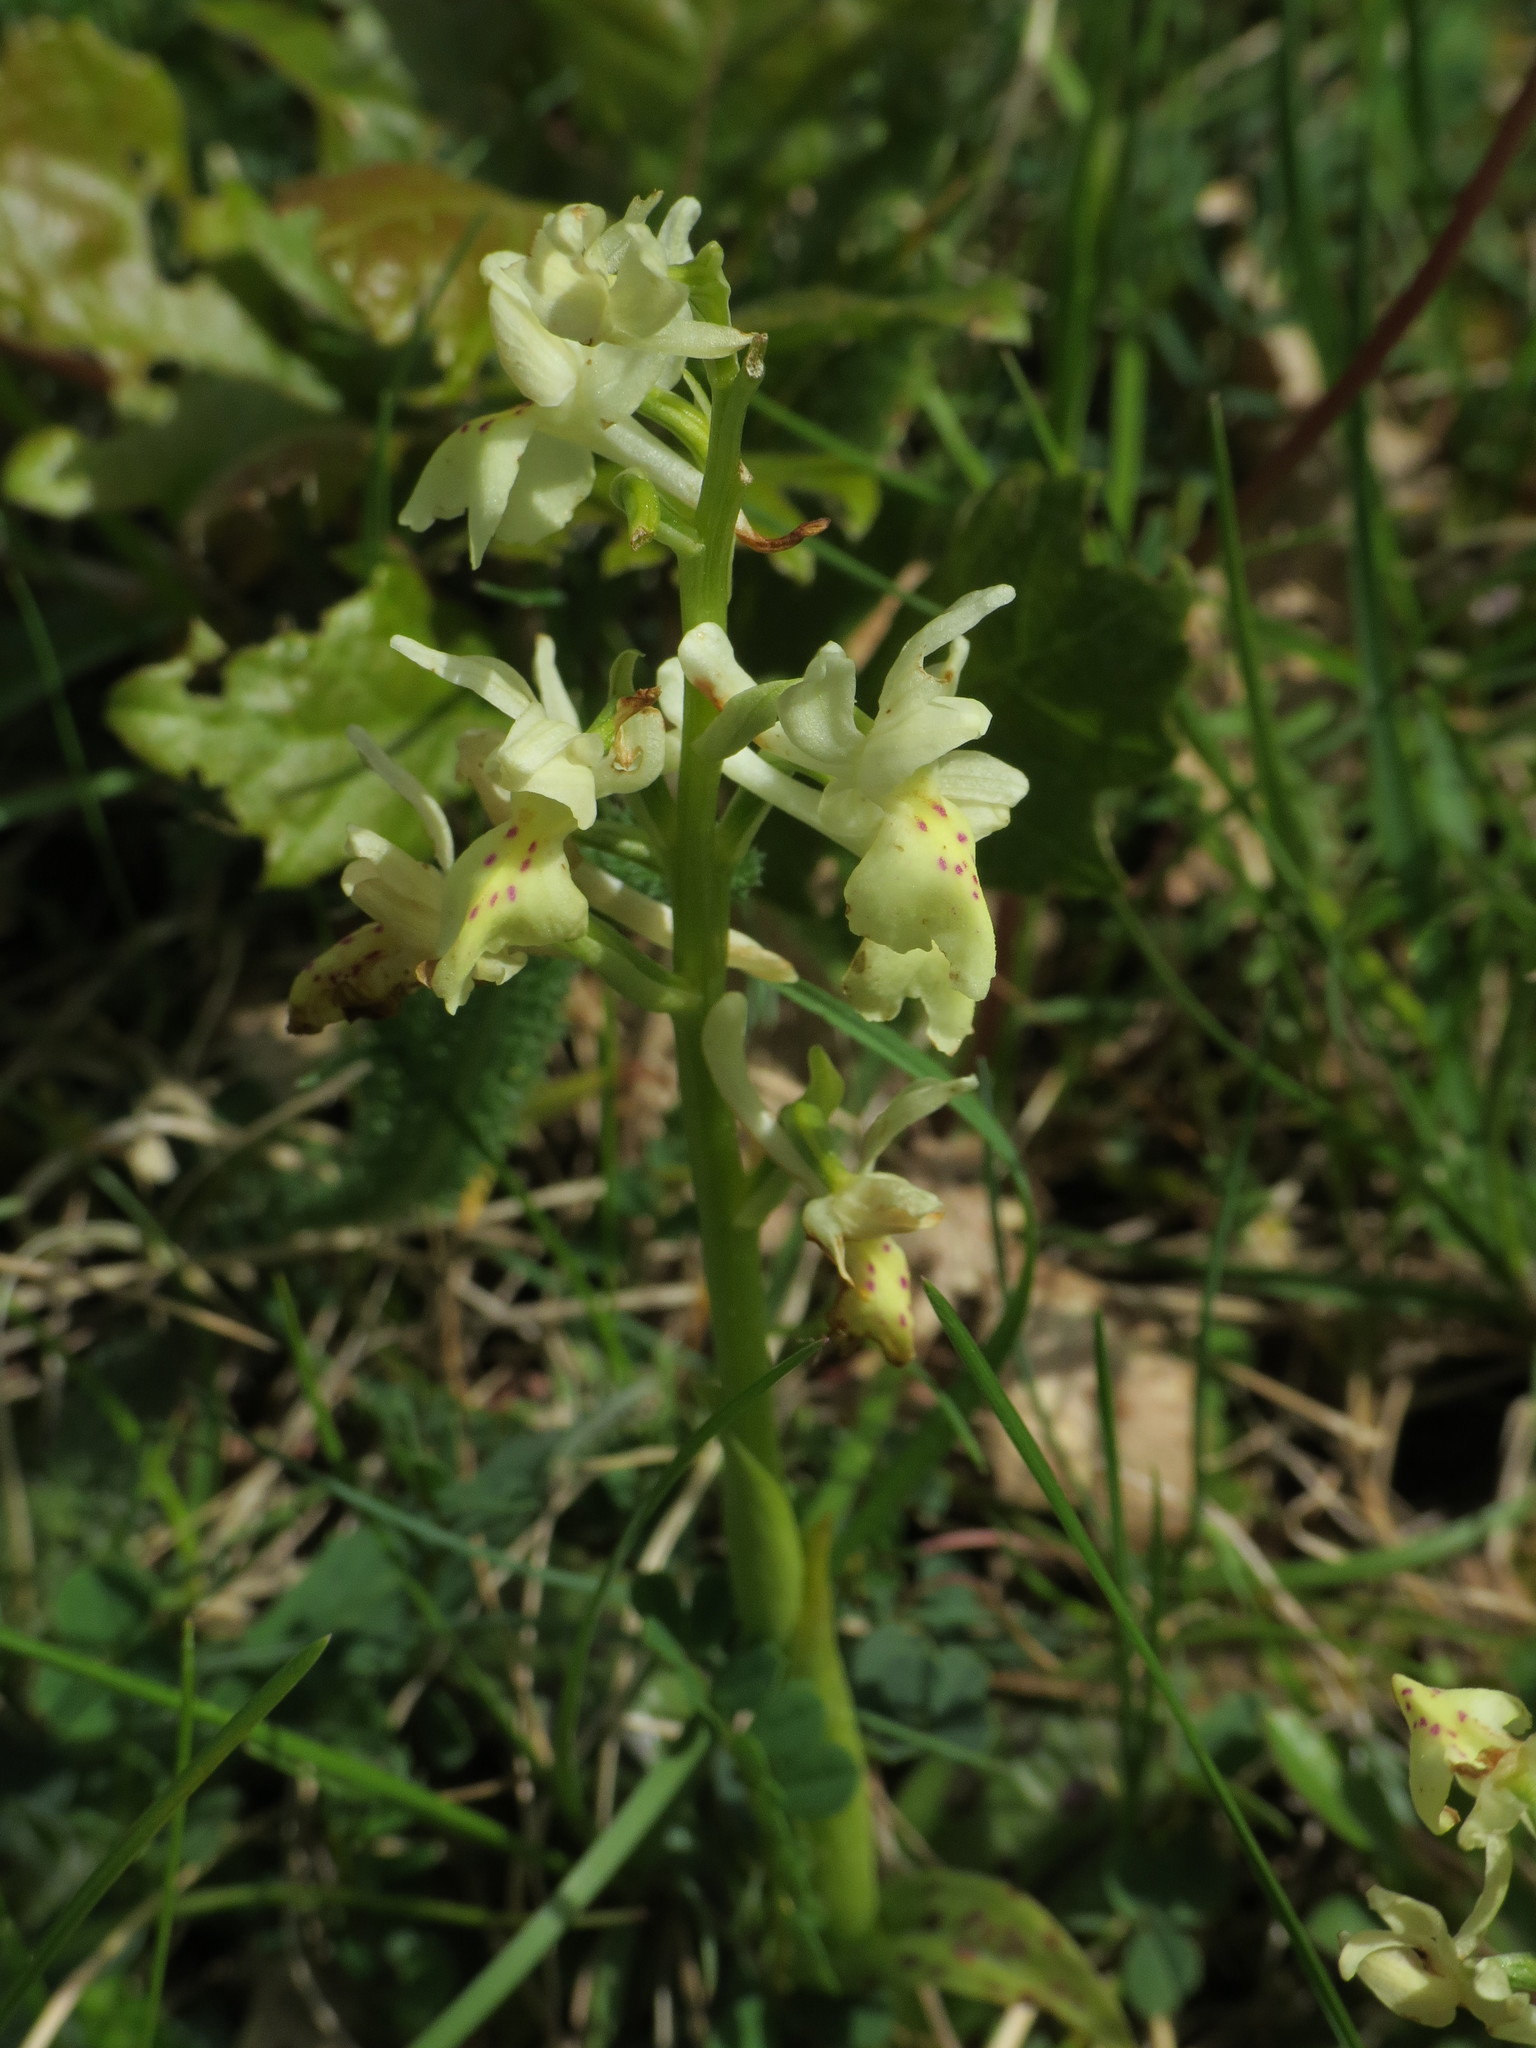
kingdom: Plantae
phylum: Tracheophyta
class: Liliopsida
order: Asparagales
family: Orchidaceae
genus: Orchis
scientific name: Orchis provincialis
